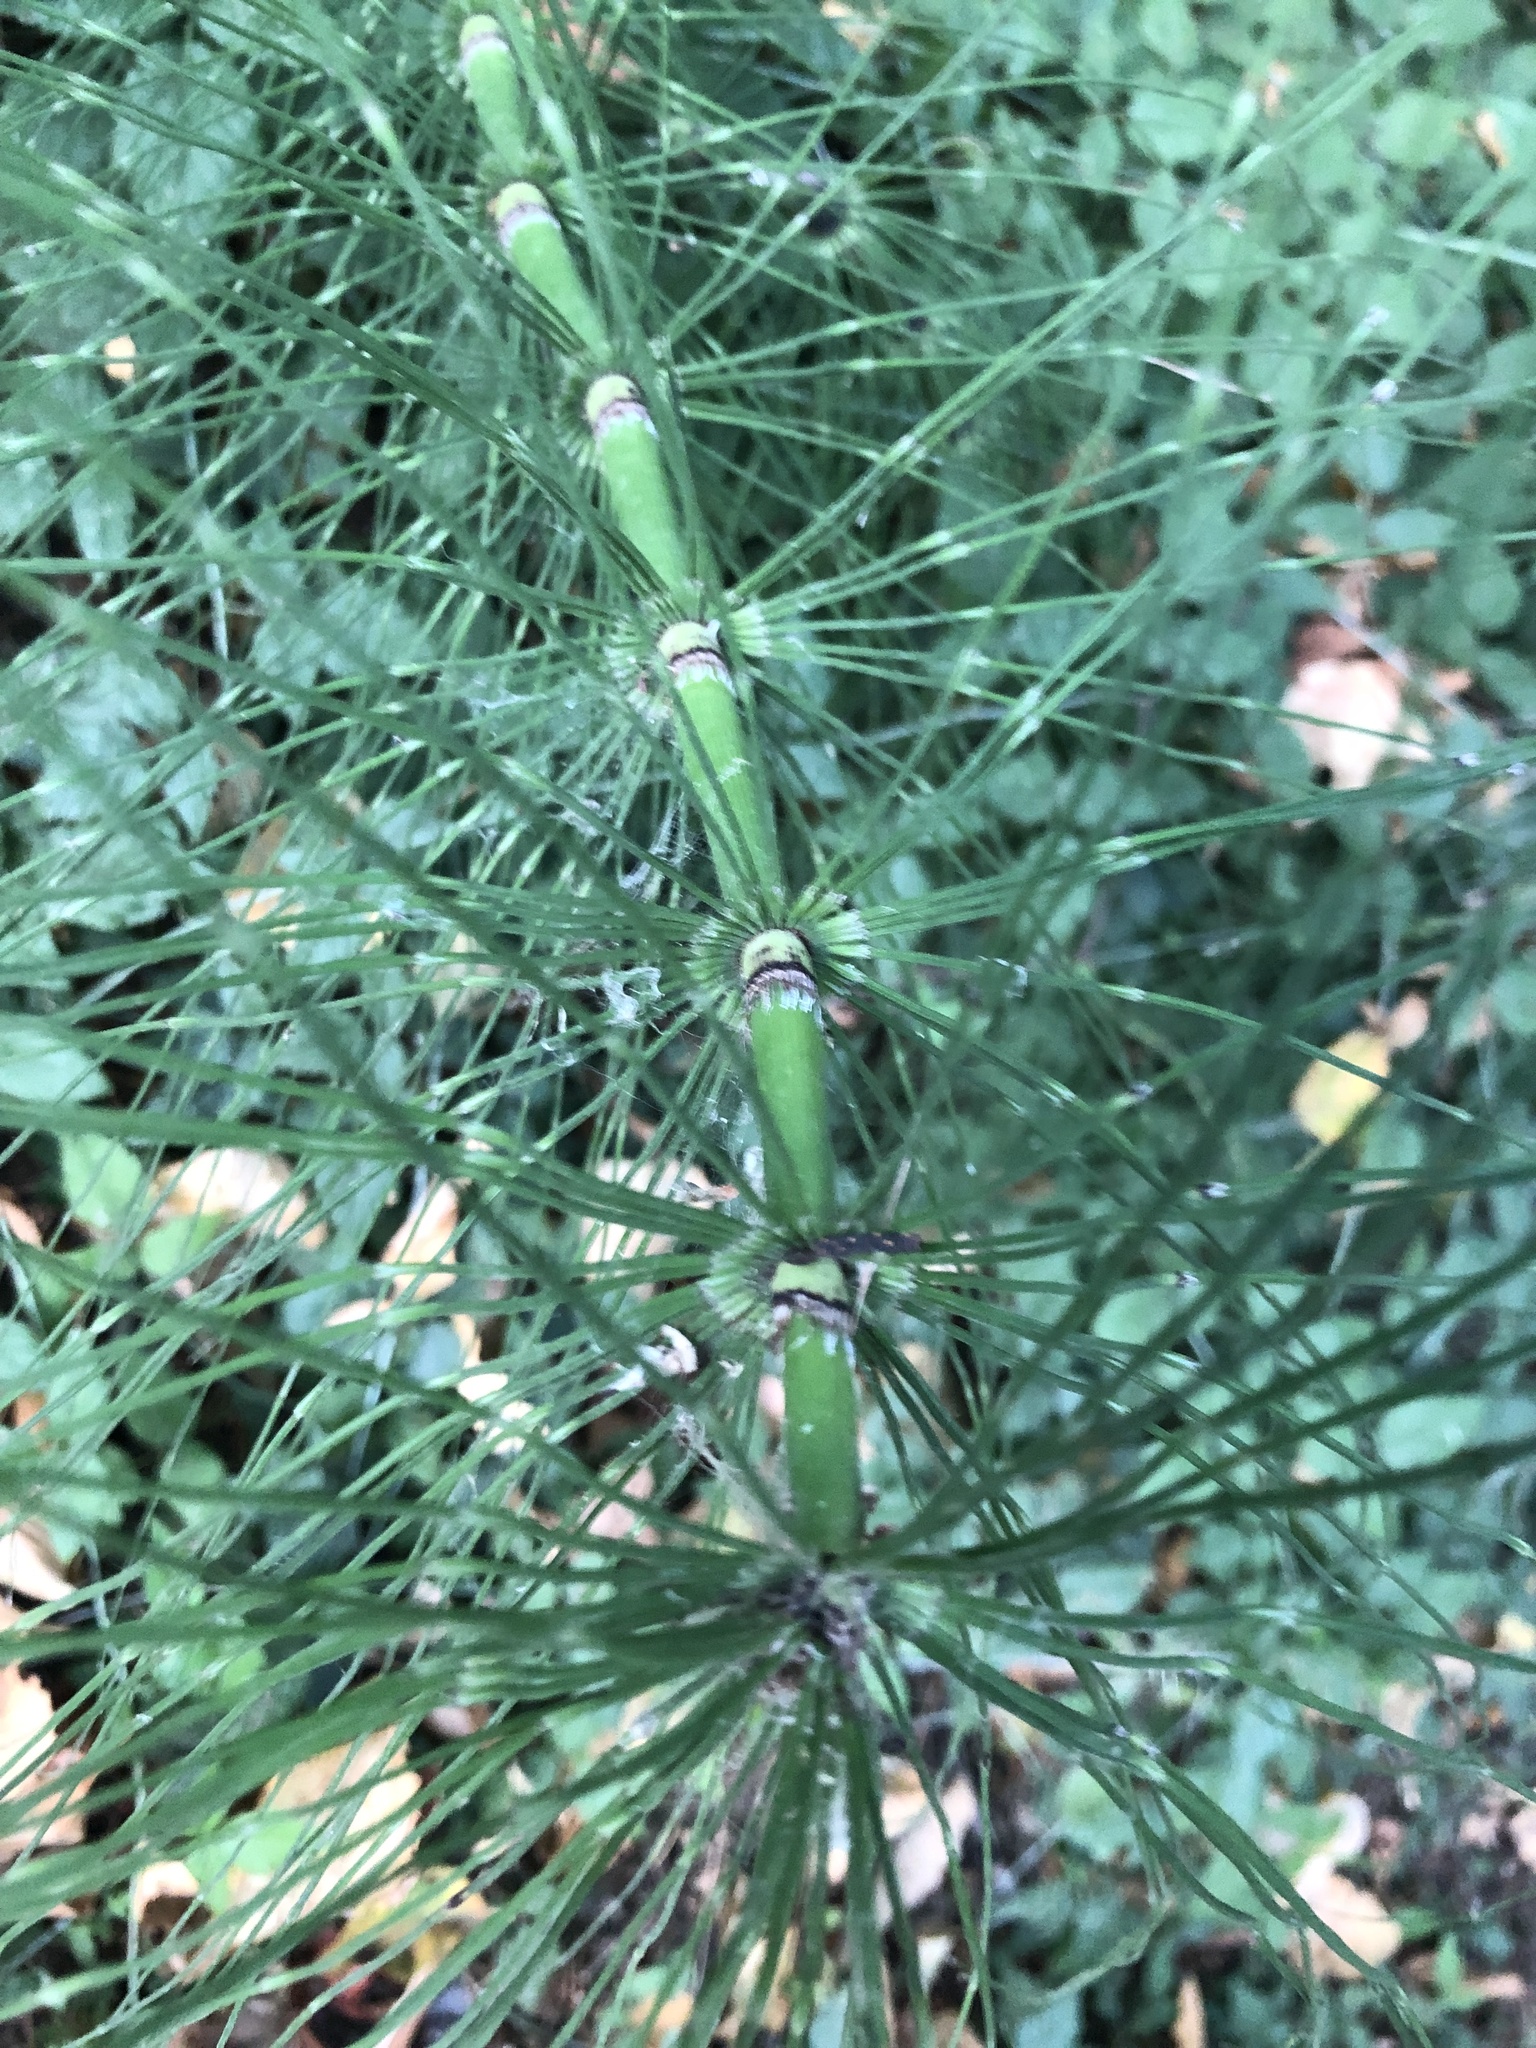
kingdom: Plantae
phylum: Tracheophyta
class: Polypodiopsida
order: Equisetales
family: Equisetaceae
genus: Equisetum
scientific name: Equisetum telmateia
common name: Great horsetail
